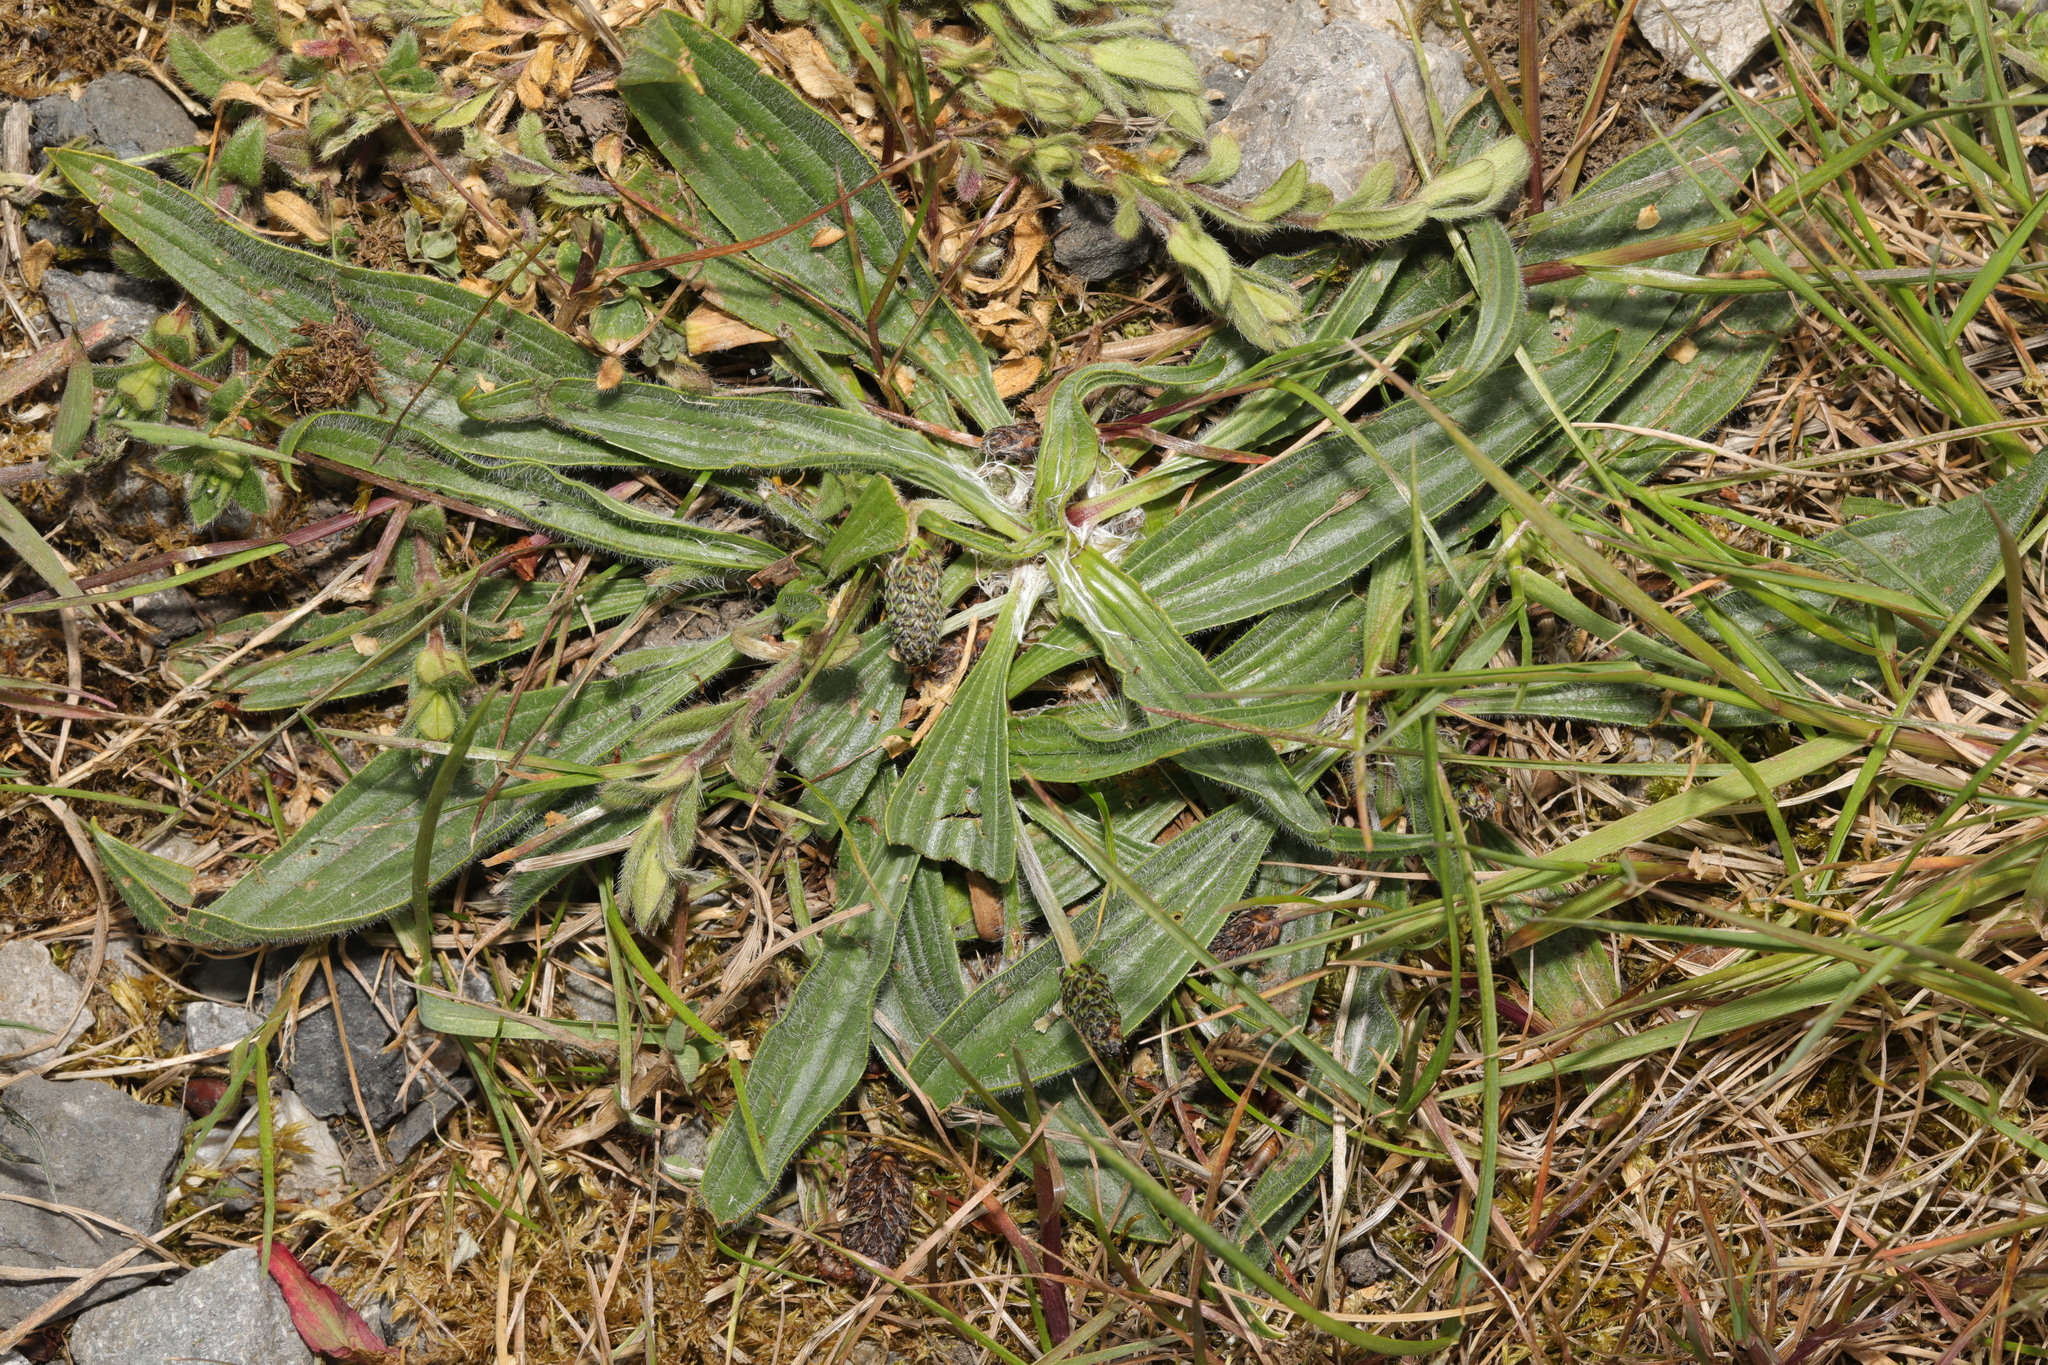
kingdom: Plantae
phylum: Tracheophyta
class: Magnoliopsida
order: Lamiales
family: Plantaginaceae
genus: Plantago
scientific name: Plantago lanceolata
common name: Ribwort plantain
